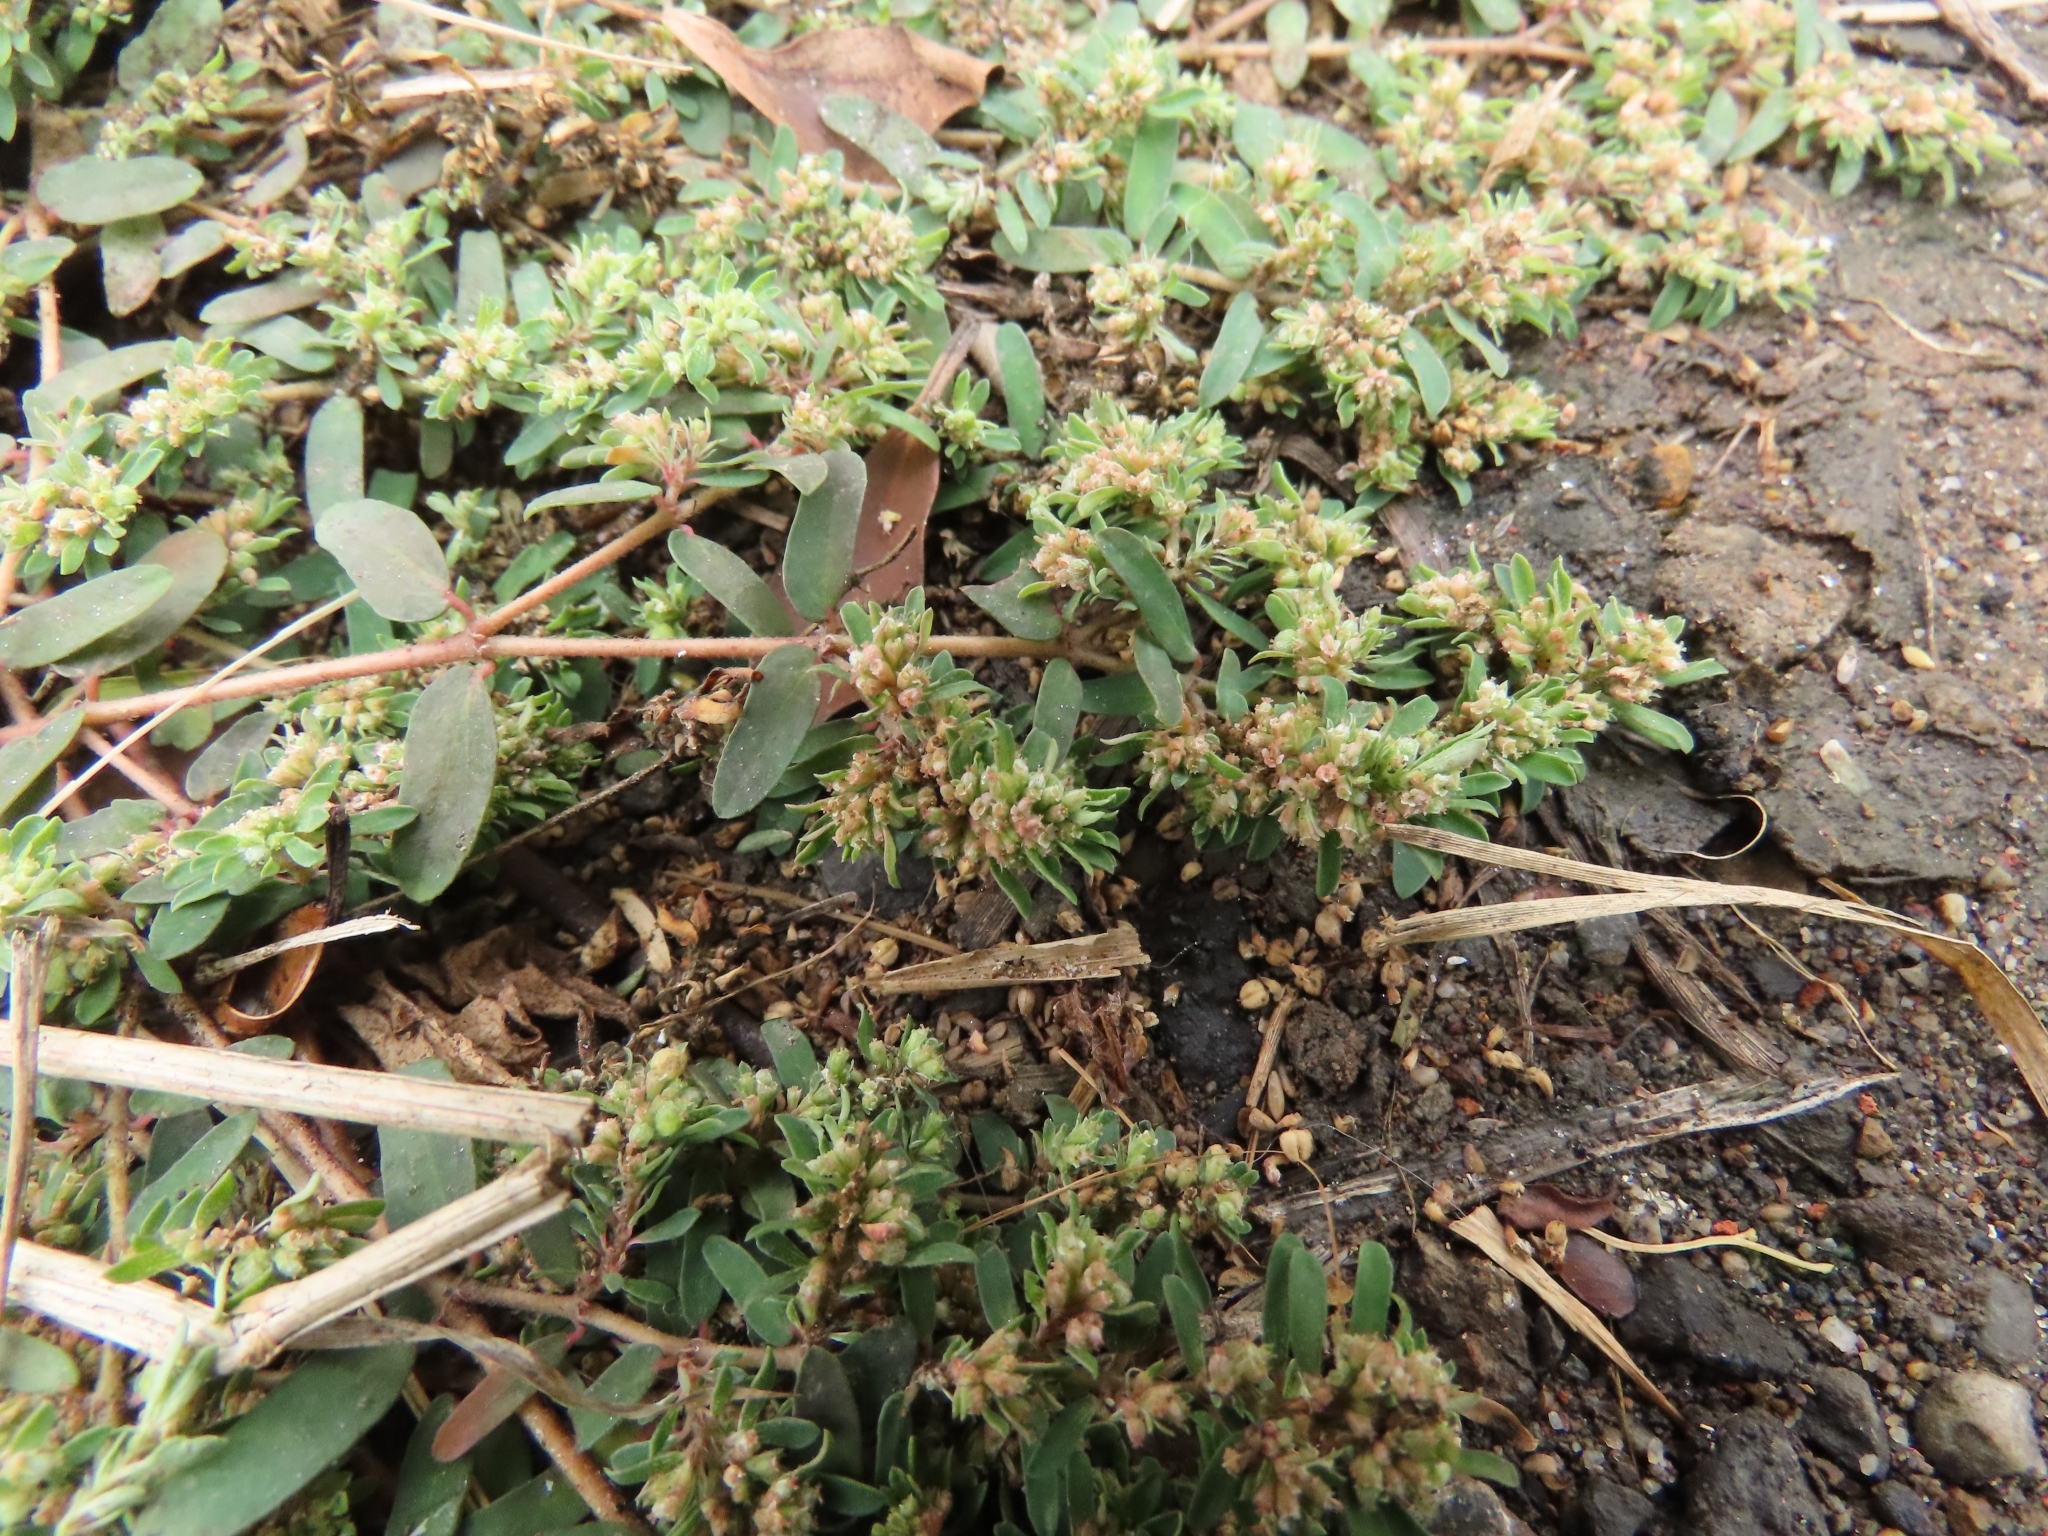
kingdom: Plantae
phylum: Tracheophyta
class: Magnoliopsida
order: Malpighiales
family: Euphorbiaceae
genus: Euphorbia
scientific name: Euphorbia maculata
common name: Spotted spurge
